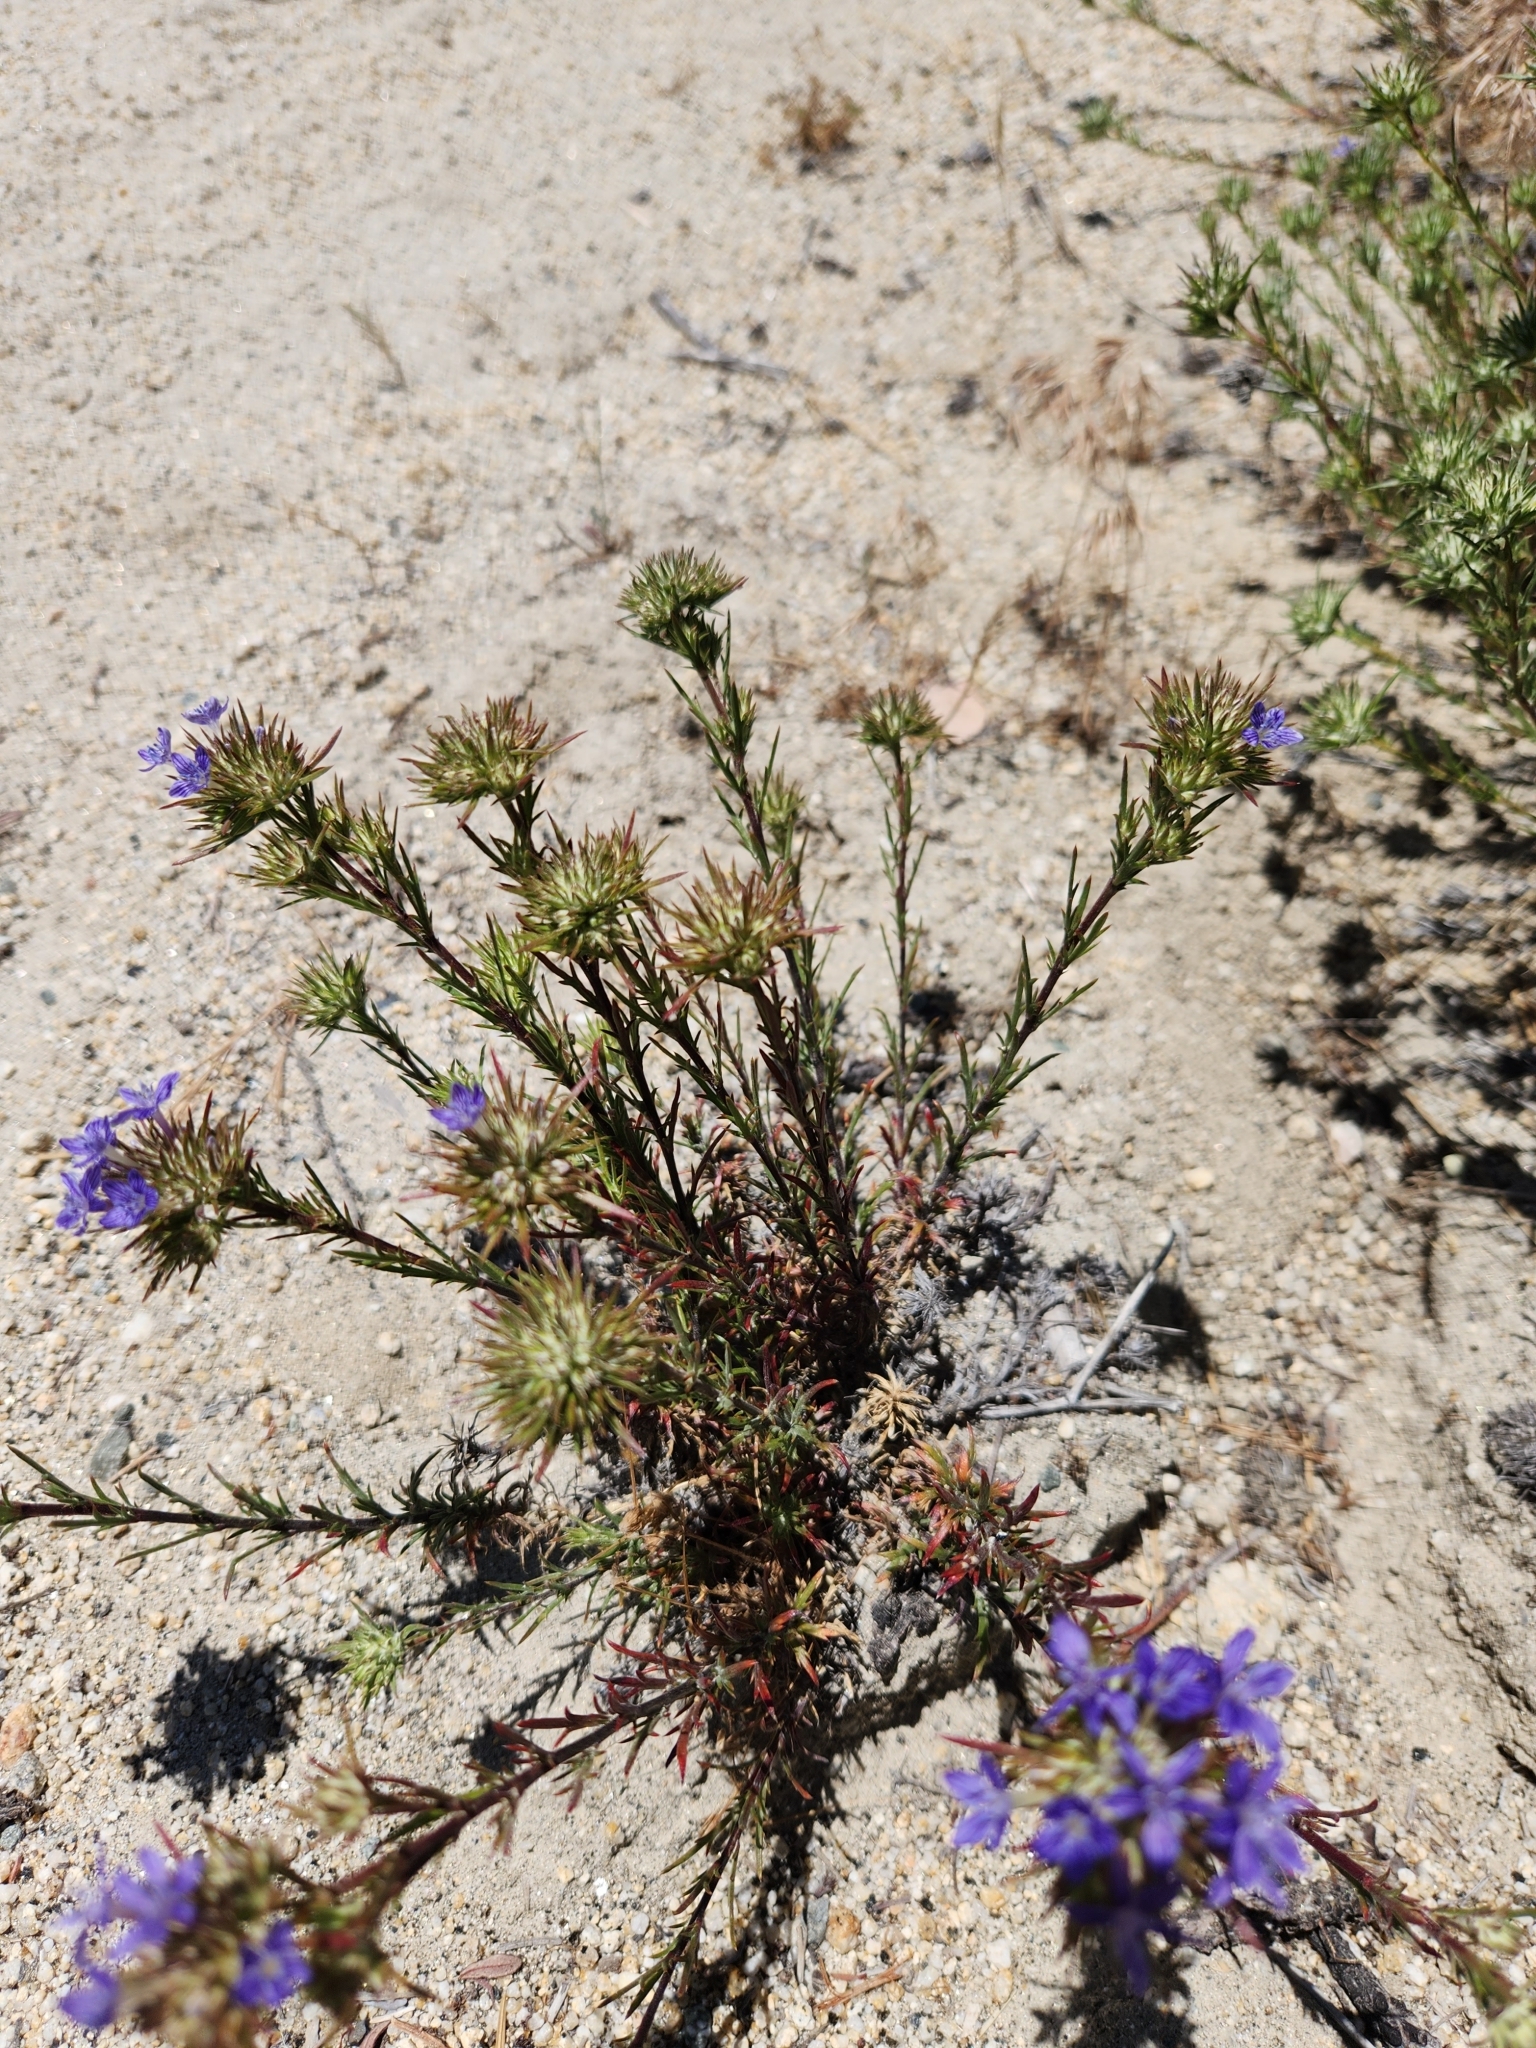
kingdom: Plantae
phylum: Tracheophyta
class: Magnoliopsida
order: Ericales
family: Polemoniaceae
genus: Eriastrum
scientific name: Eriastrum densifolium
